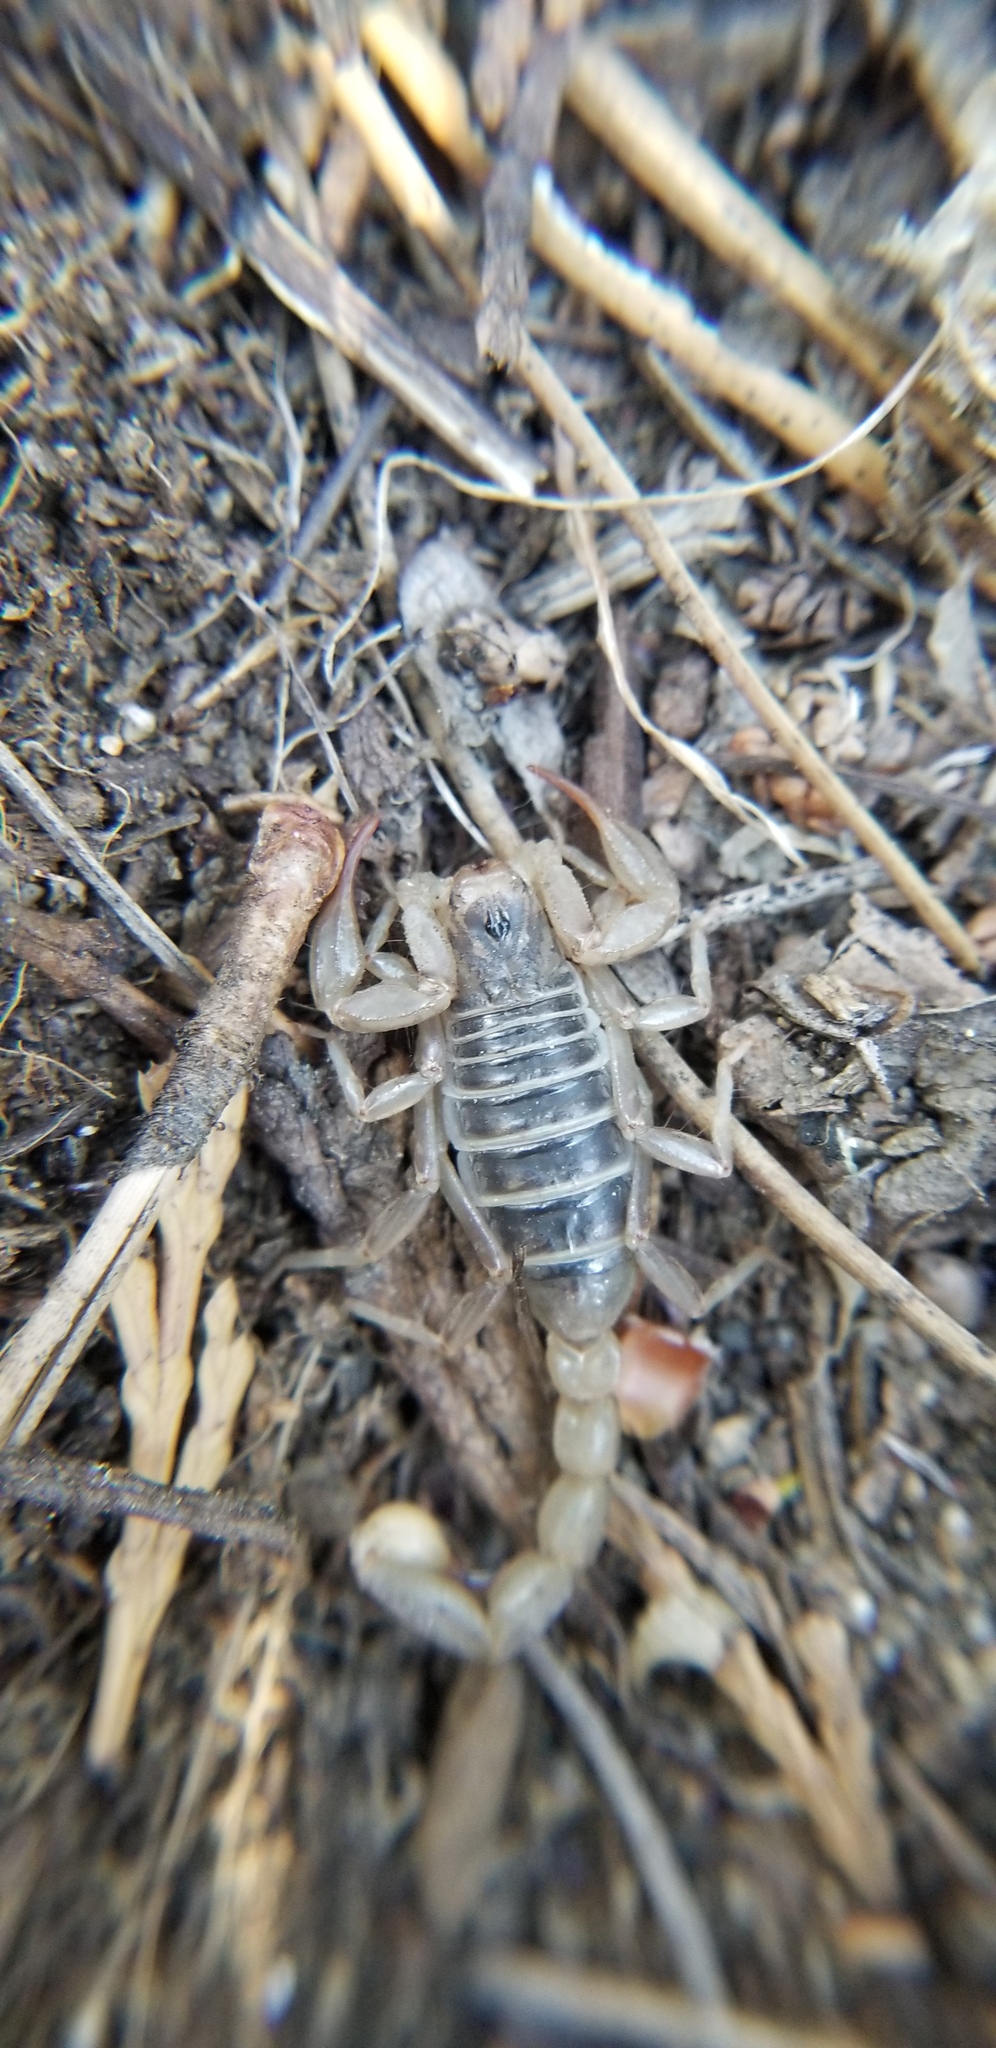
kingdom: Animalia
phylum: Arthropoda
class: Arachnida
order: Scorpiones
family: Vaejovidae
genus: Paruroctonus
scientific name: Paruroctonus boreus
